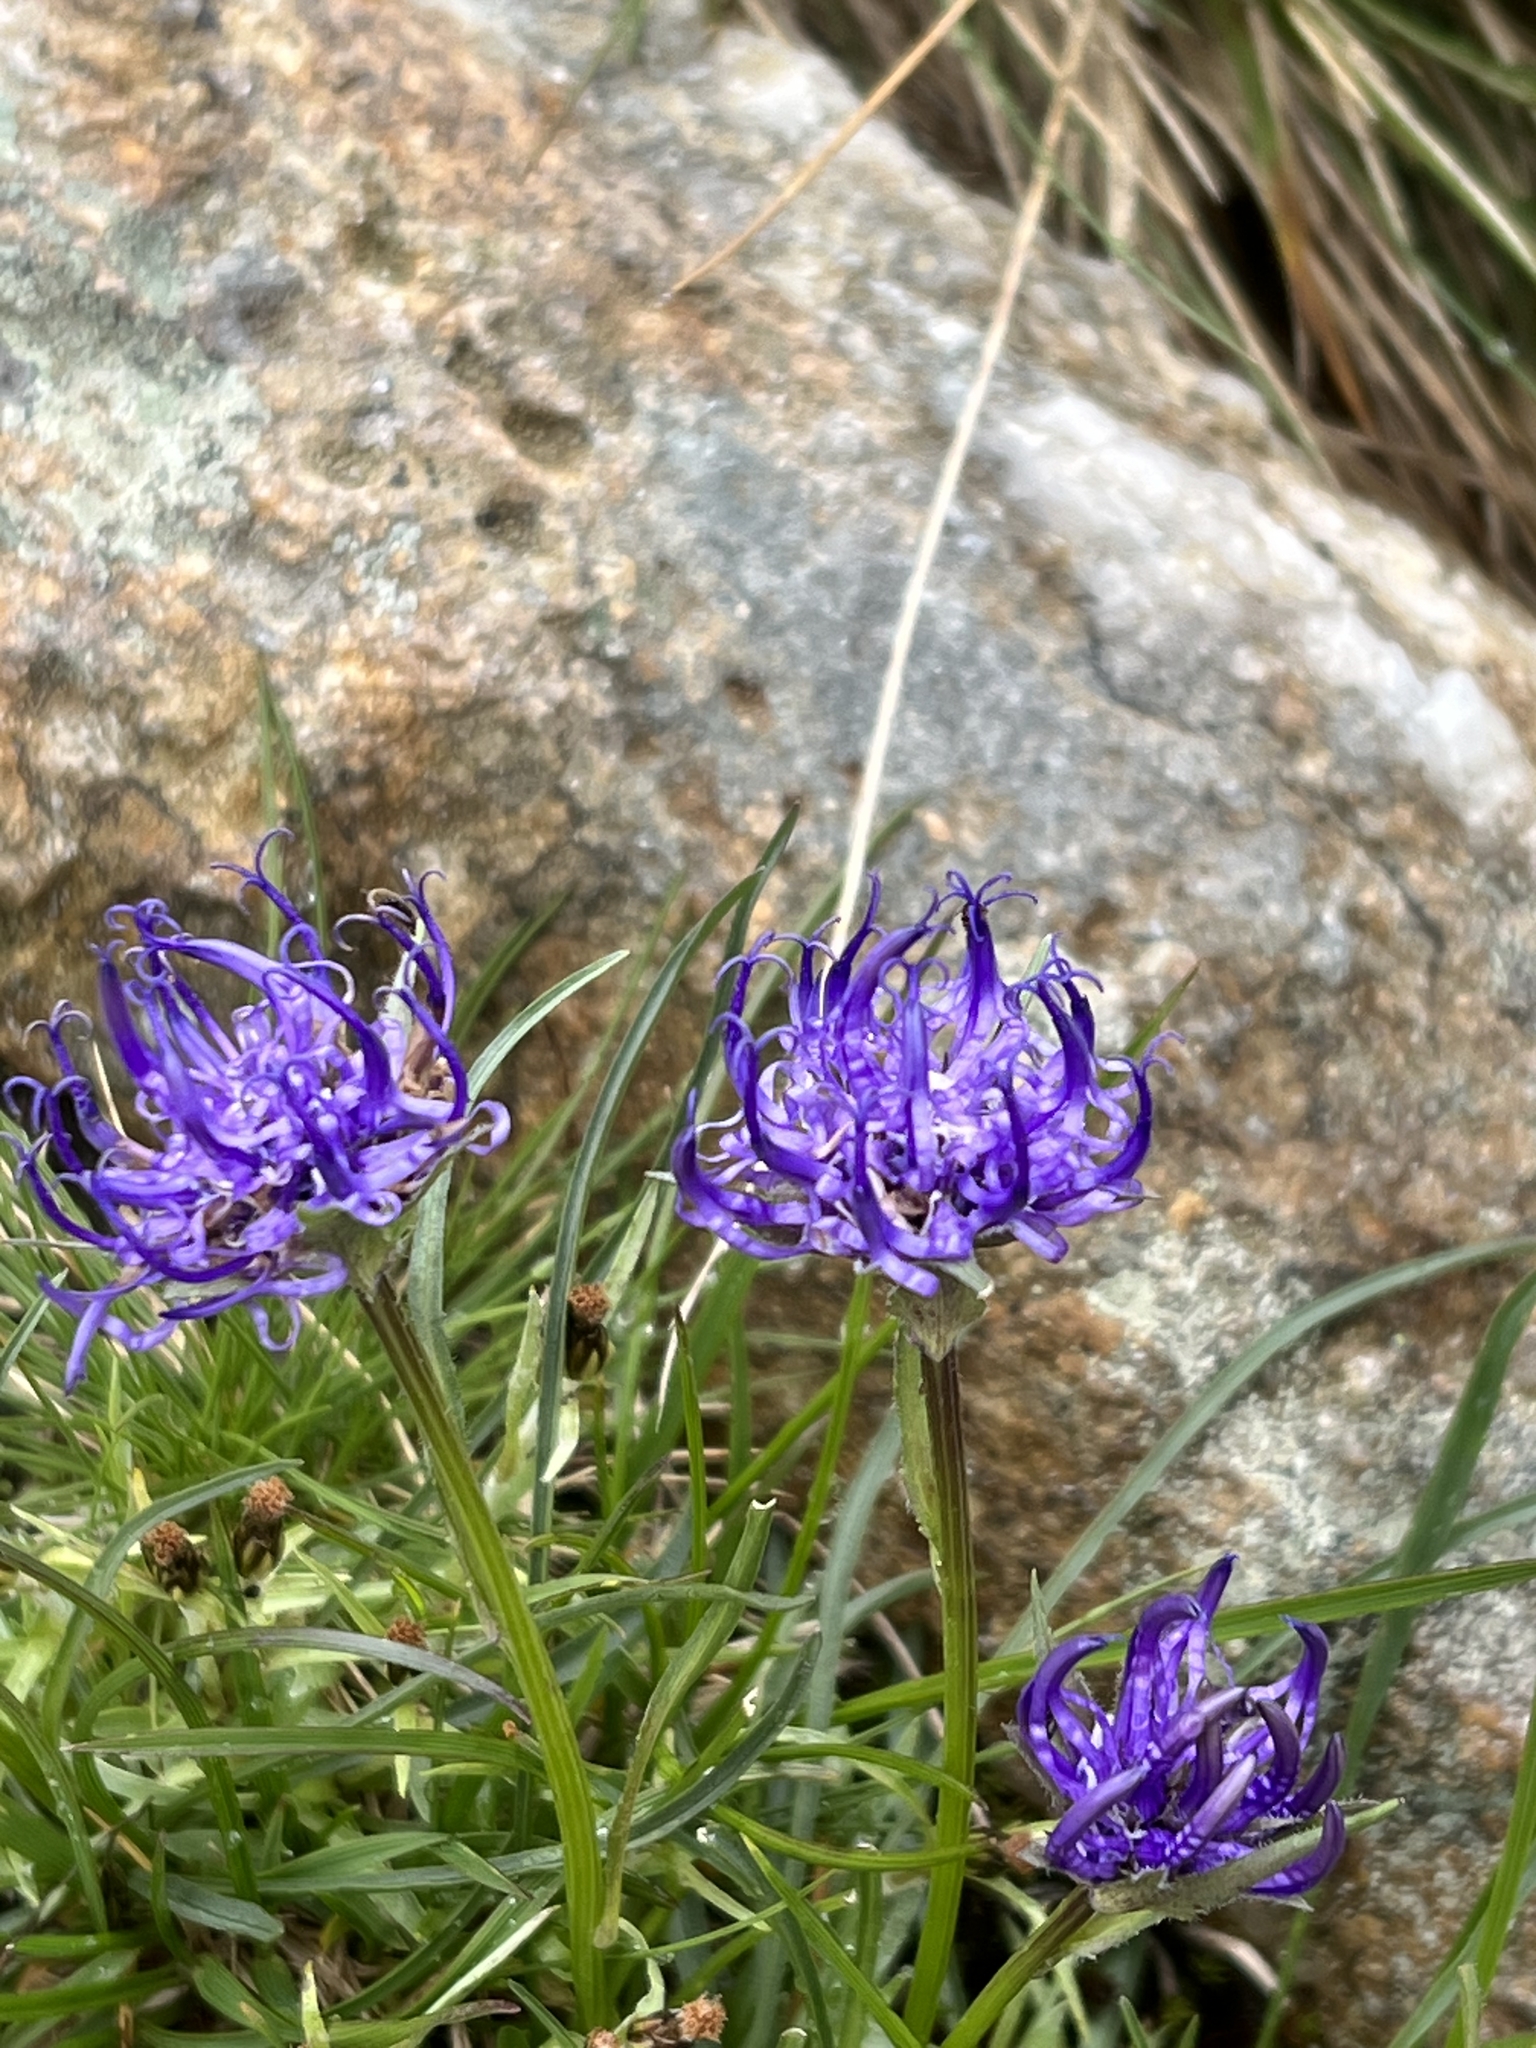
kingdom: Plantae
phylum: Tracheophyta
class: Magnoliopsida
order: Asterales
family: Campanulaceae
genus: Phyteuma
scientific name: Phyteuma hemisphaericum
